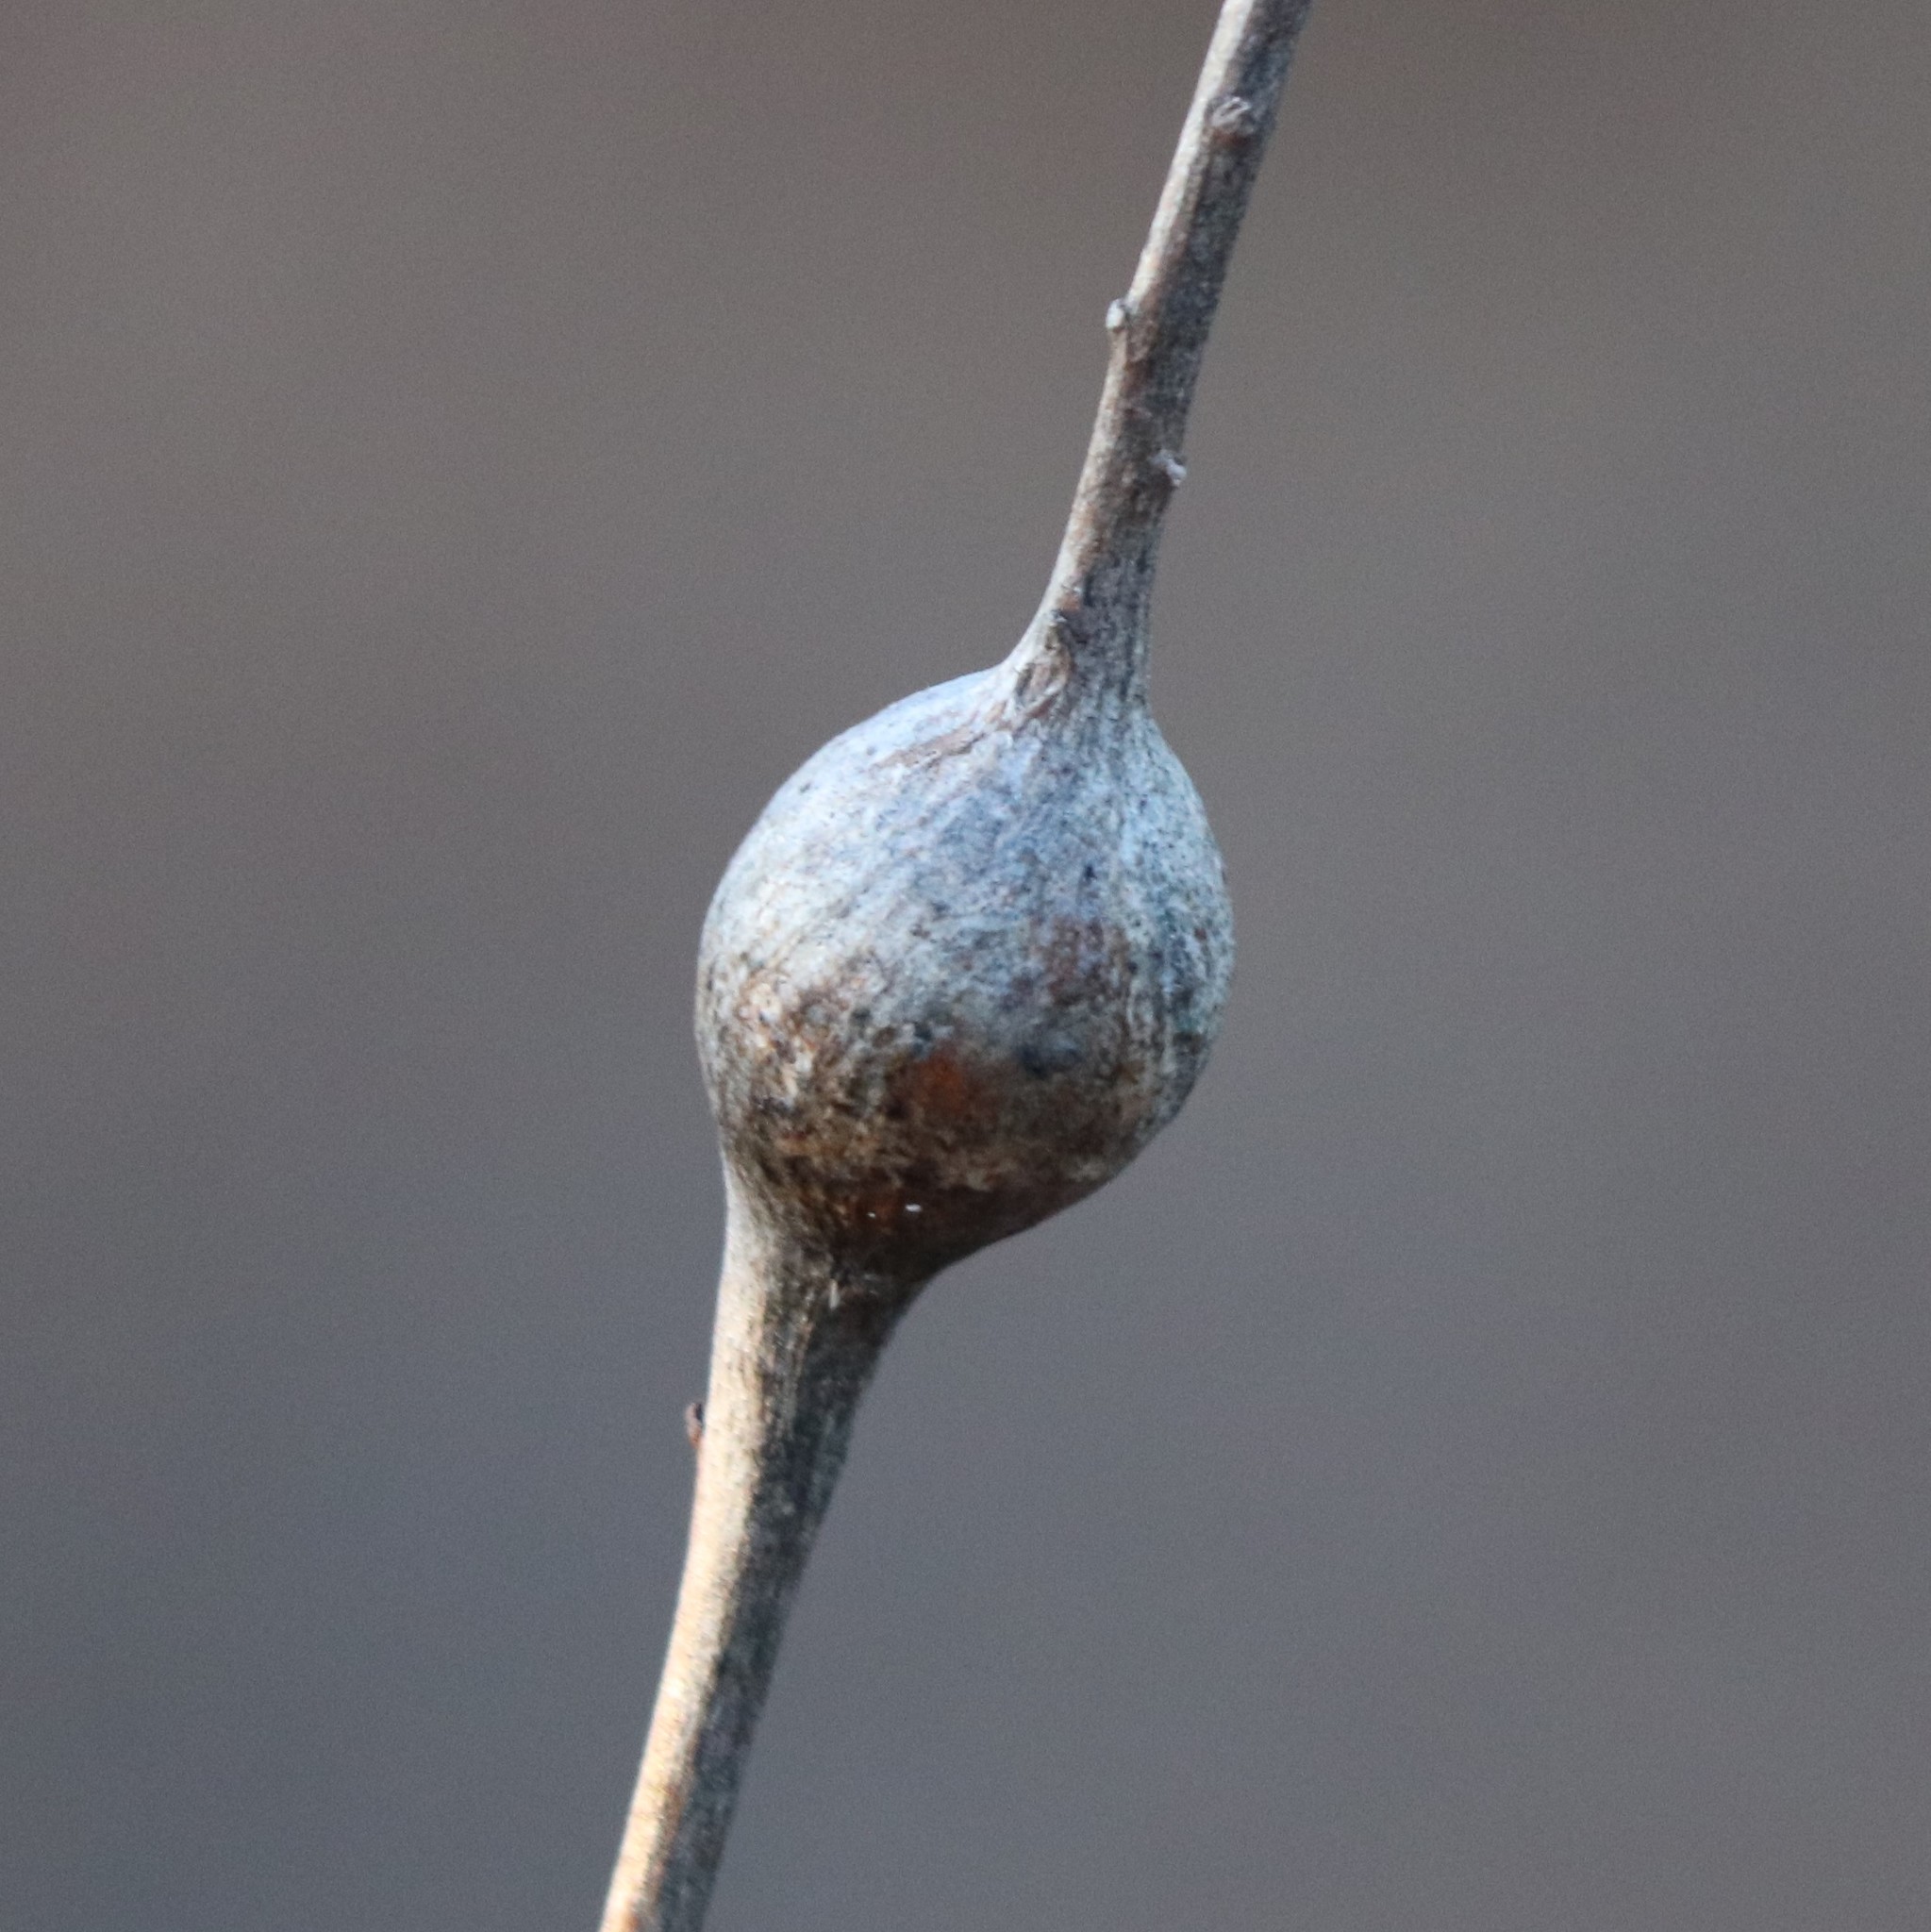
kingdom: Animalia
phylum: Arthropoda
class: Insecta
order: Diptera
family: Tephritidae
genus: Eurosta
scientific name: Eurosta solidaginis
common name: Goldenrod gall fly
